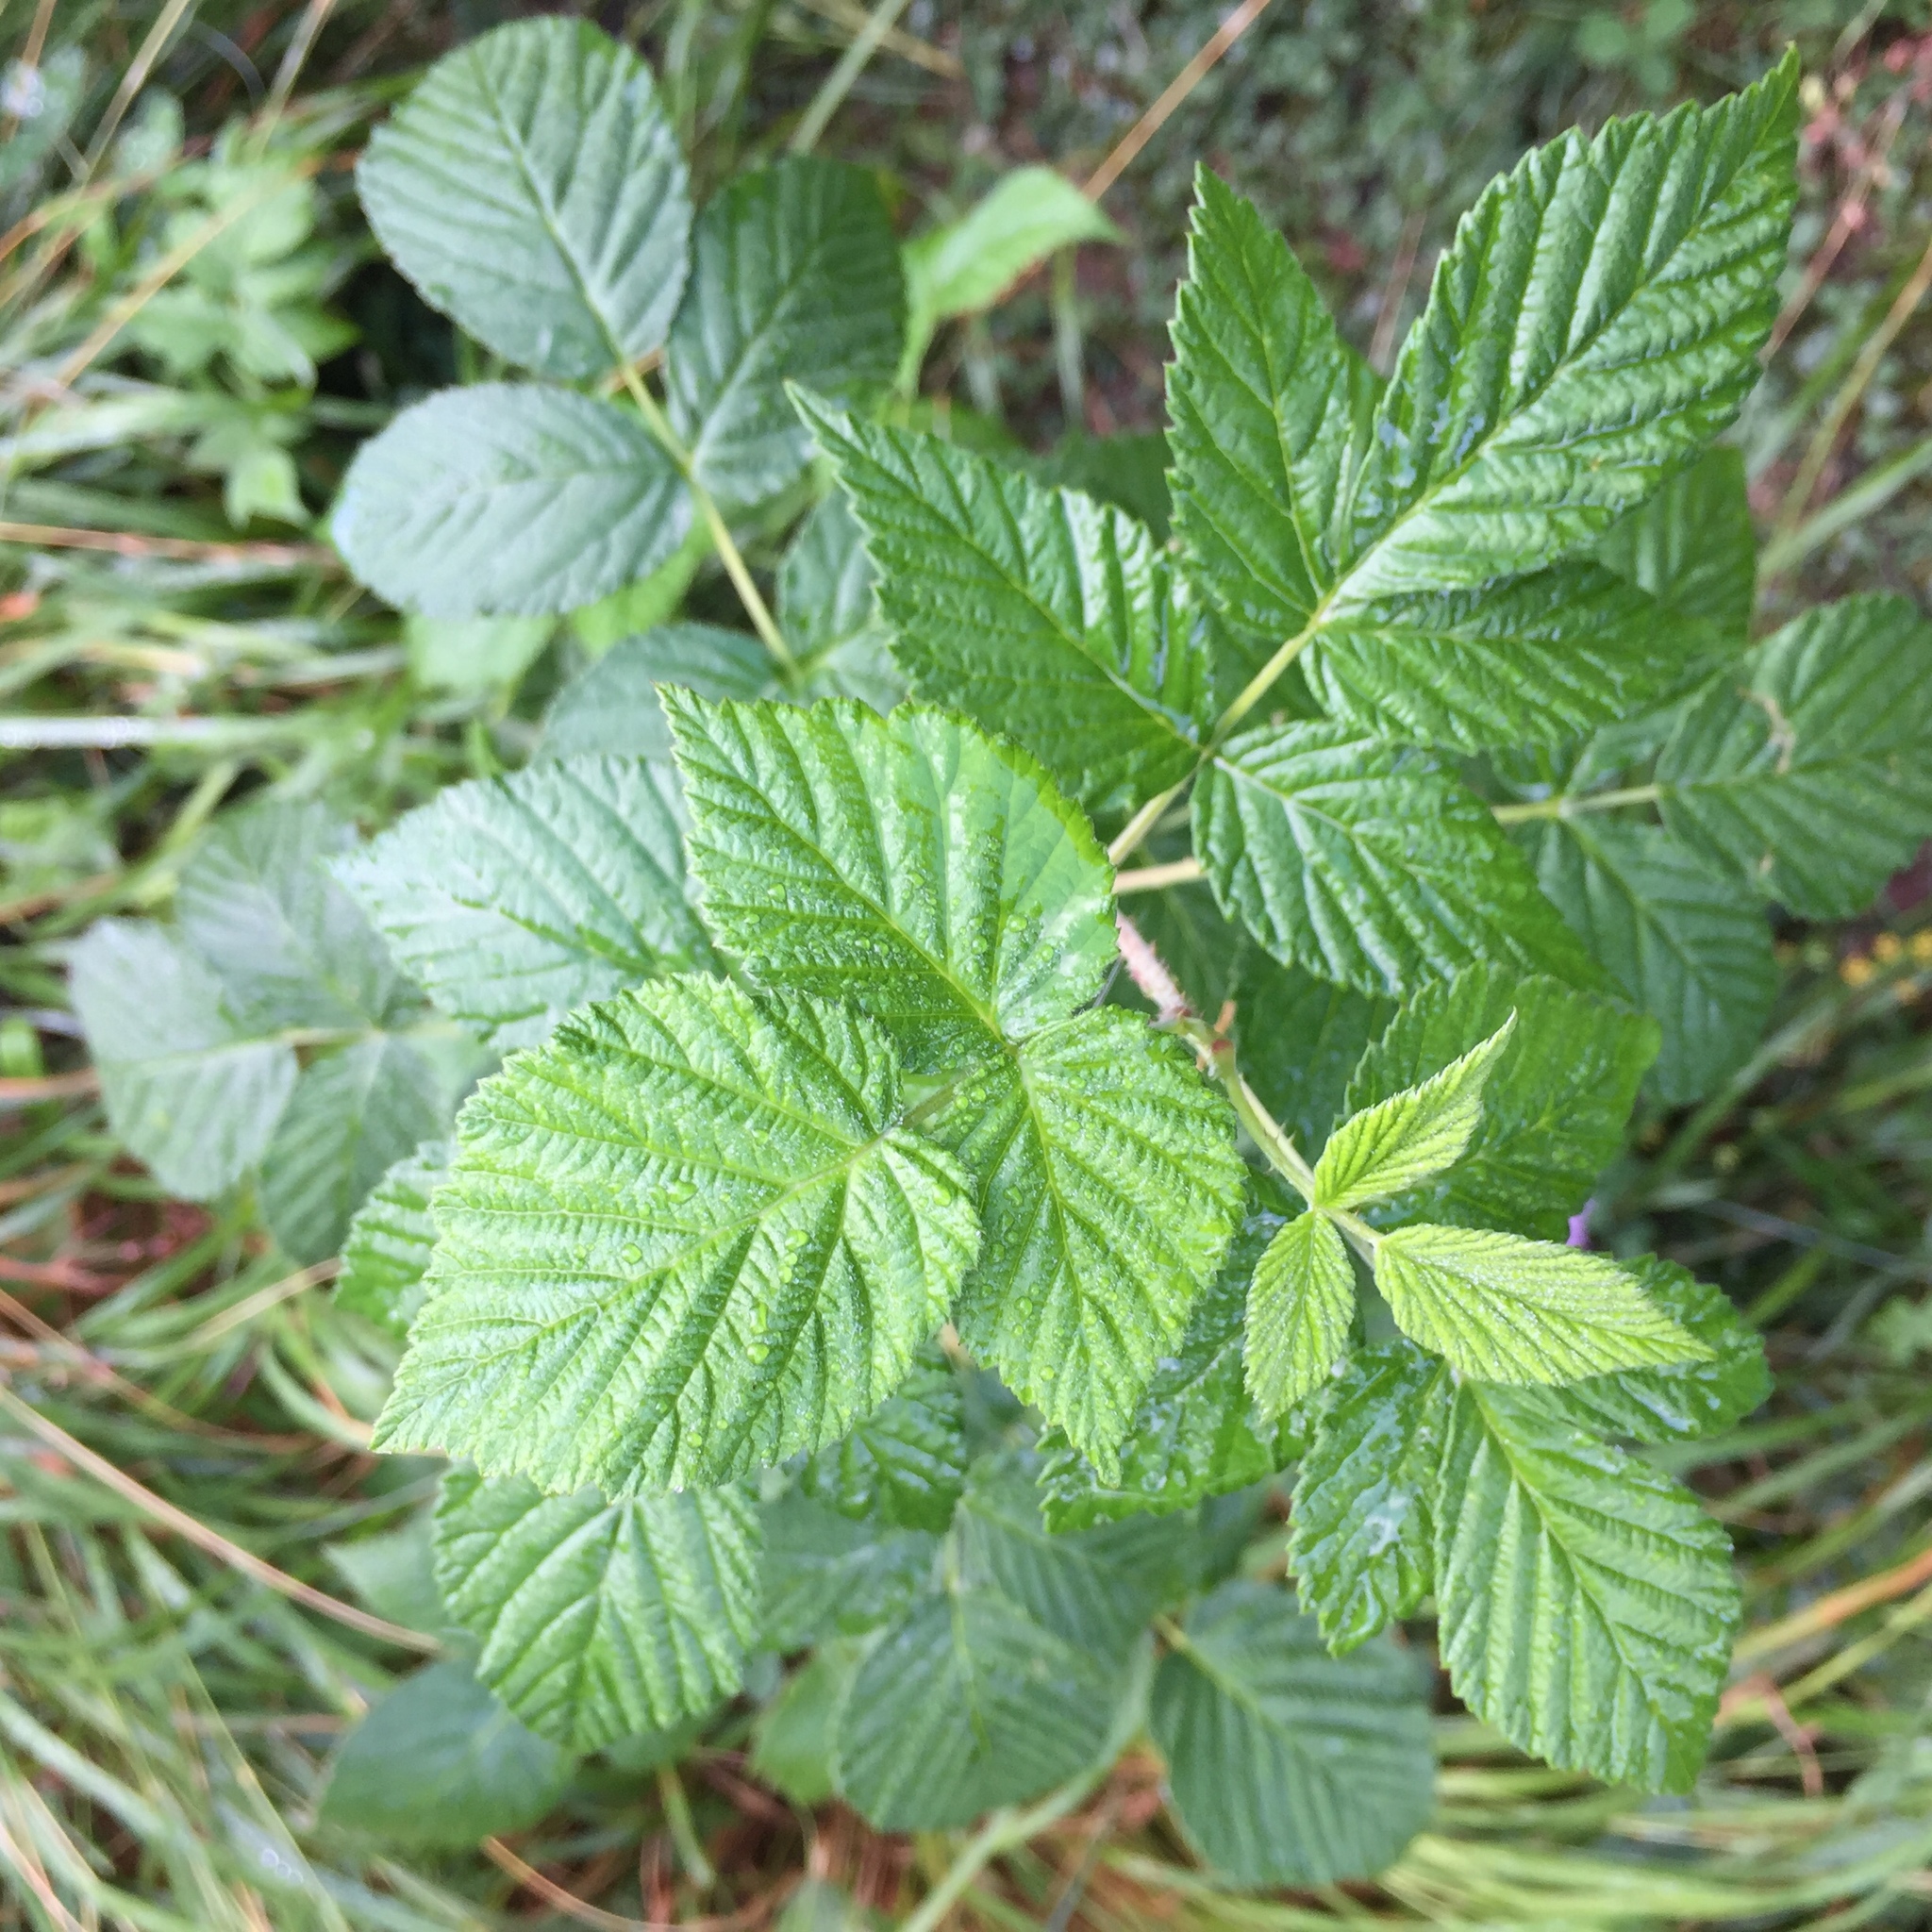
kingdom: Plantae
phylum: Tracheophyta
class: Magnoliopsida
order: Rosales
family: Rosaceae
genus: Rubus
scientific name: Rubus idaeus
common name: Raspberry
